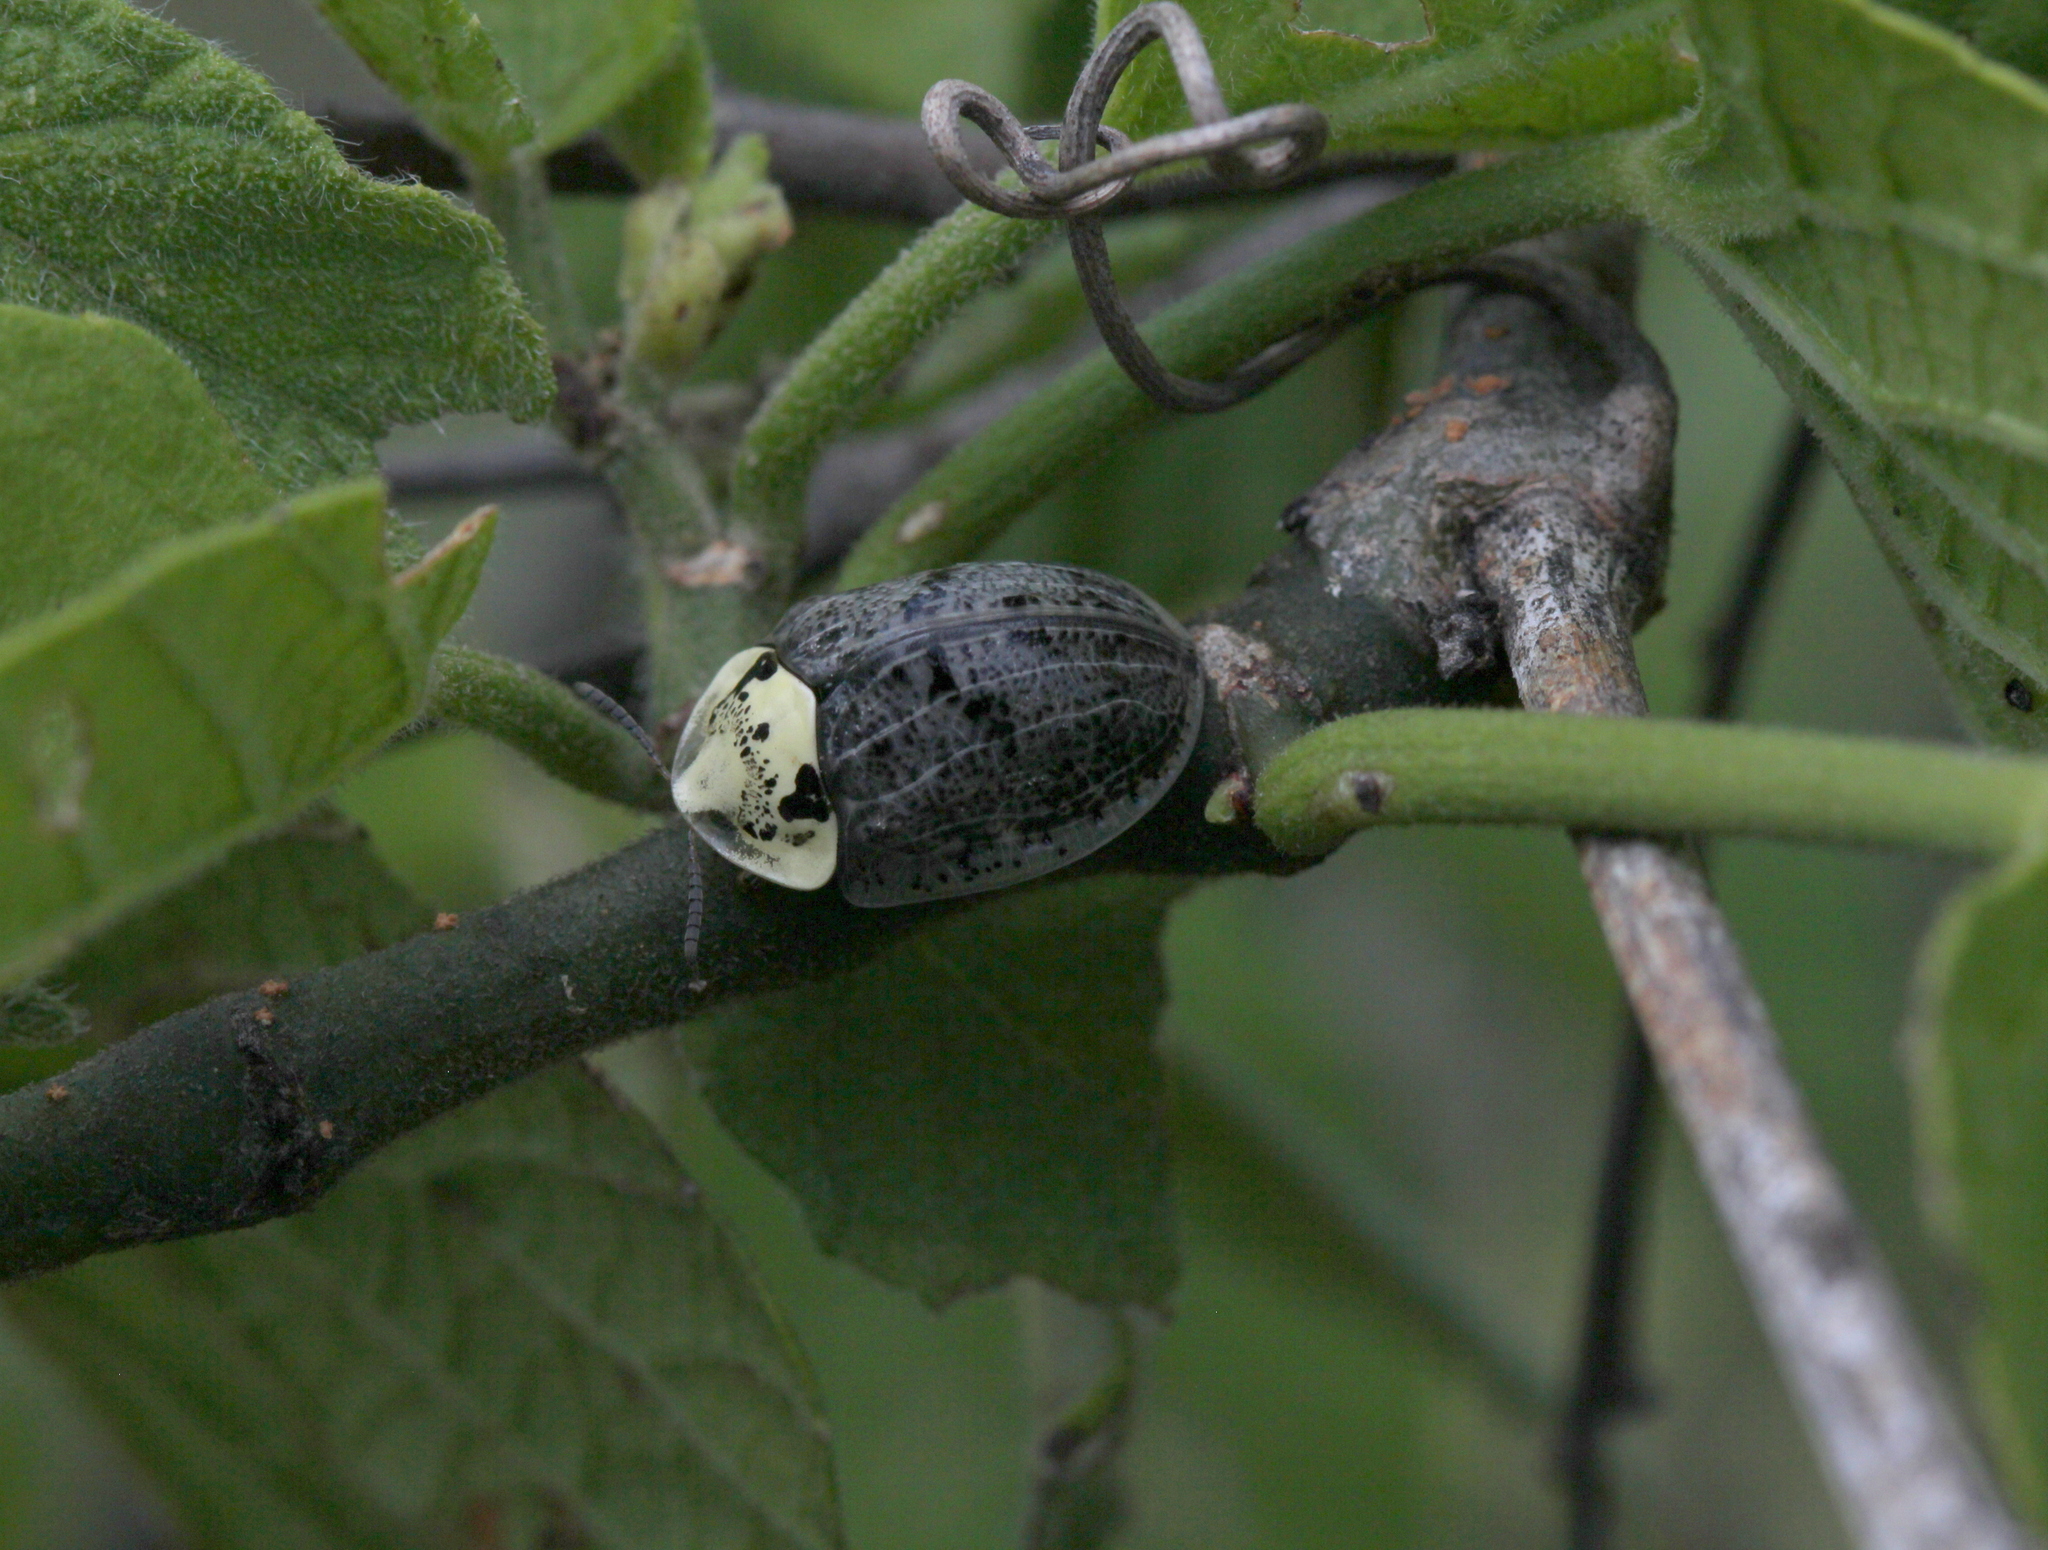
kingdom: Animalia
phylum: Arthropoda
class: Insecta
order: Coleoptera
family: Chrysomelidae
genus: Physonota
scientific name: Physonota alutacea
